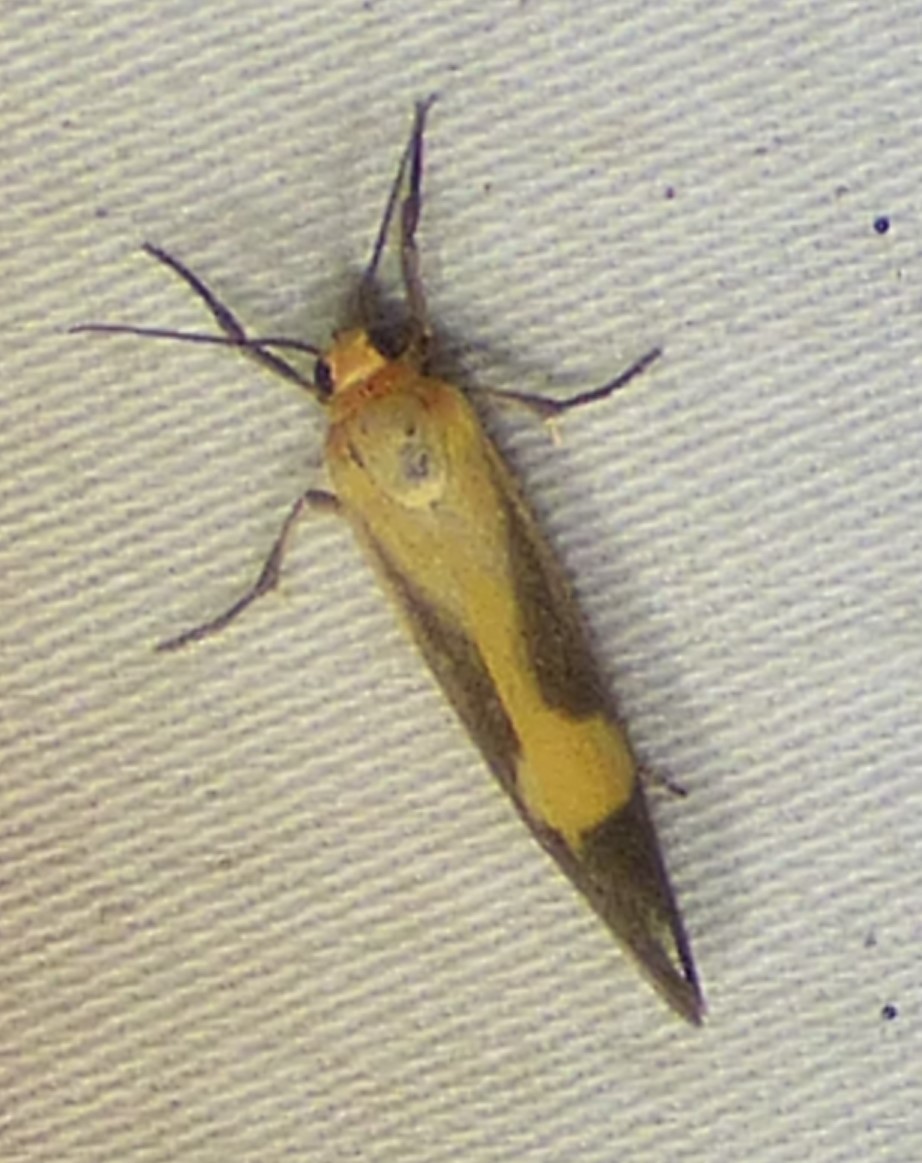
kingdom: Animalia
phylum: Arthropoda
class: Insecta
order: Lepidoptera
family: Erebidae
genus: Cisthene
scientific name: Cisthene plumbea
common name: Lead colored lichen moth
